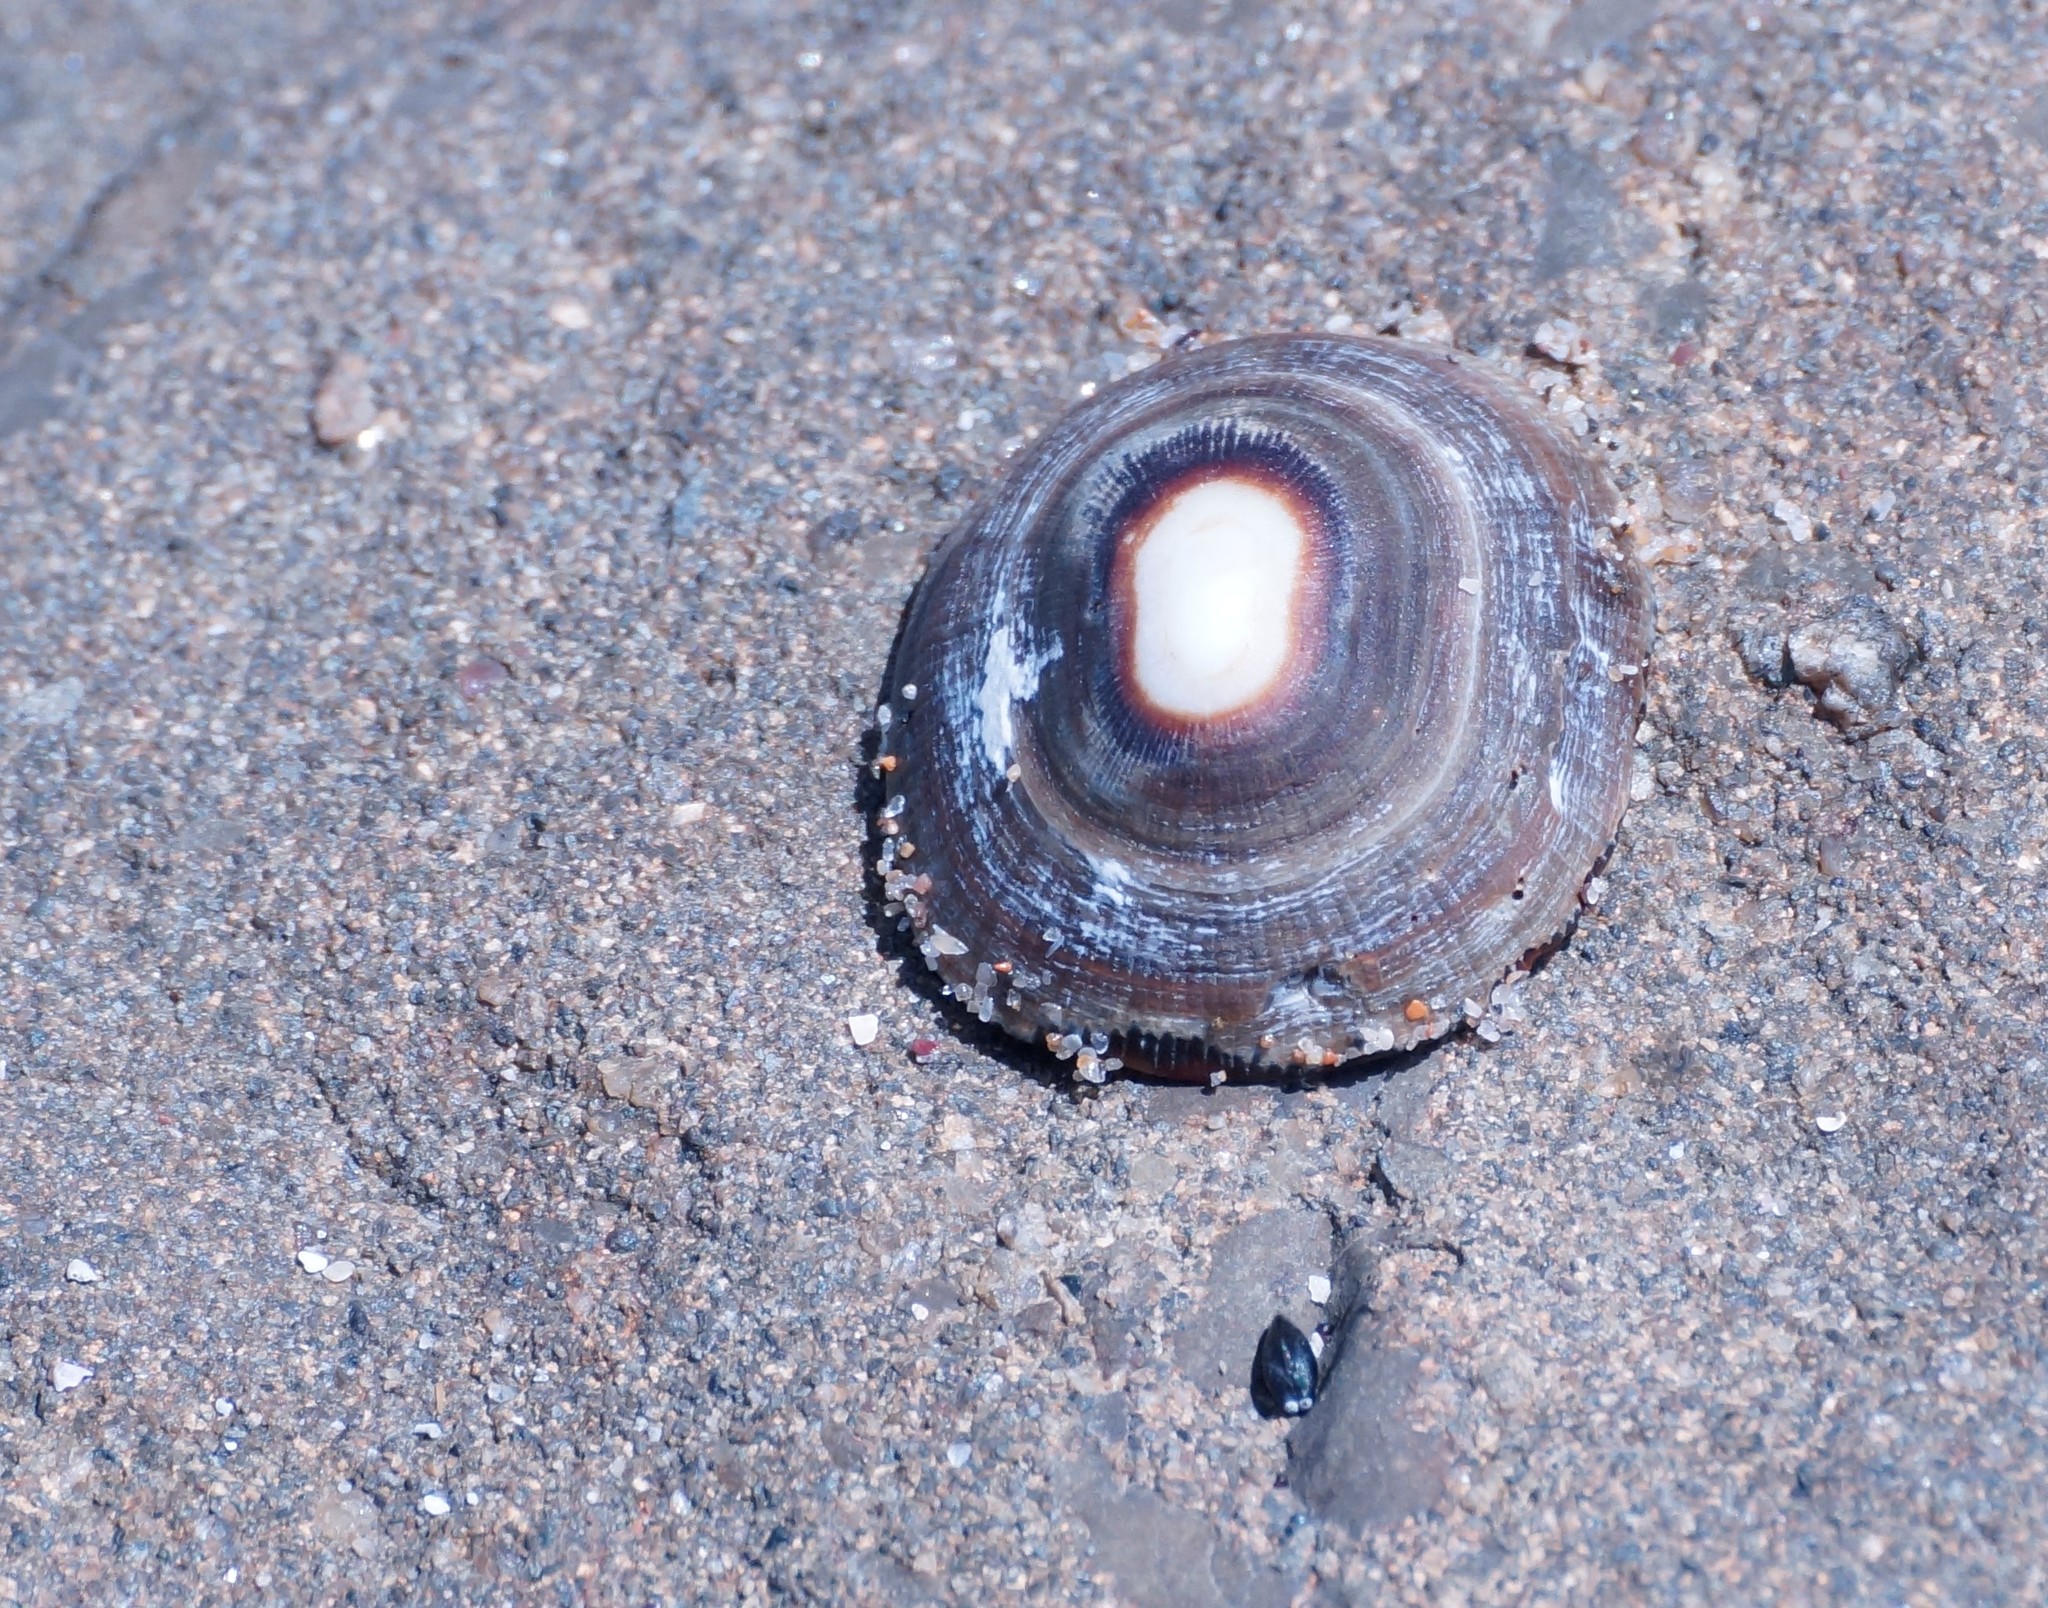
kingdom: Animalia
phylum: Mollusca
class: Gastropoda
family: Patellidae
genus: Scutellastra
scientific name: Scutellastra peronii
